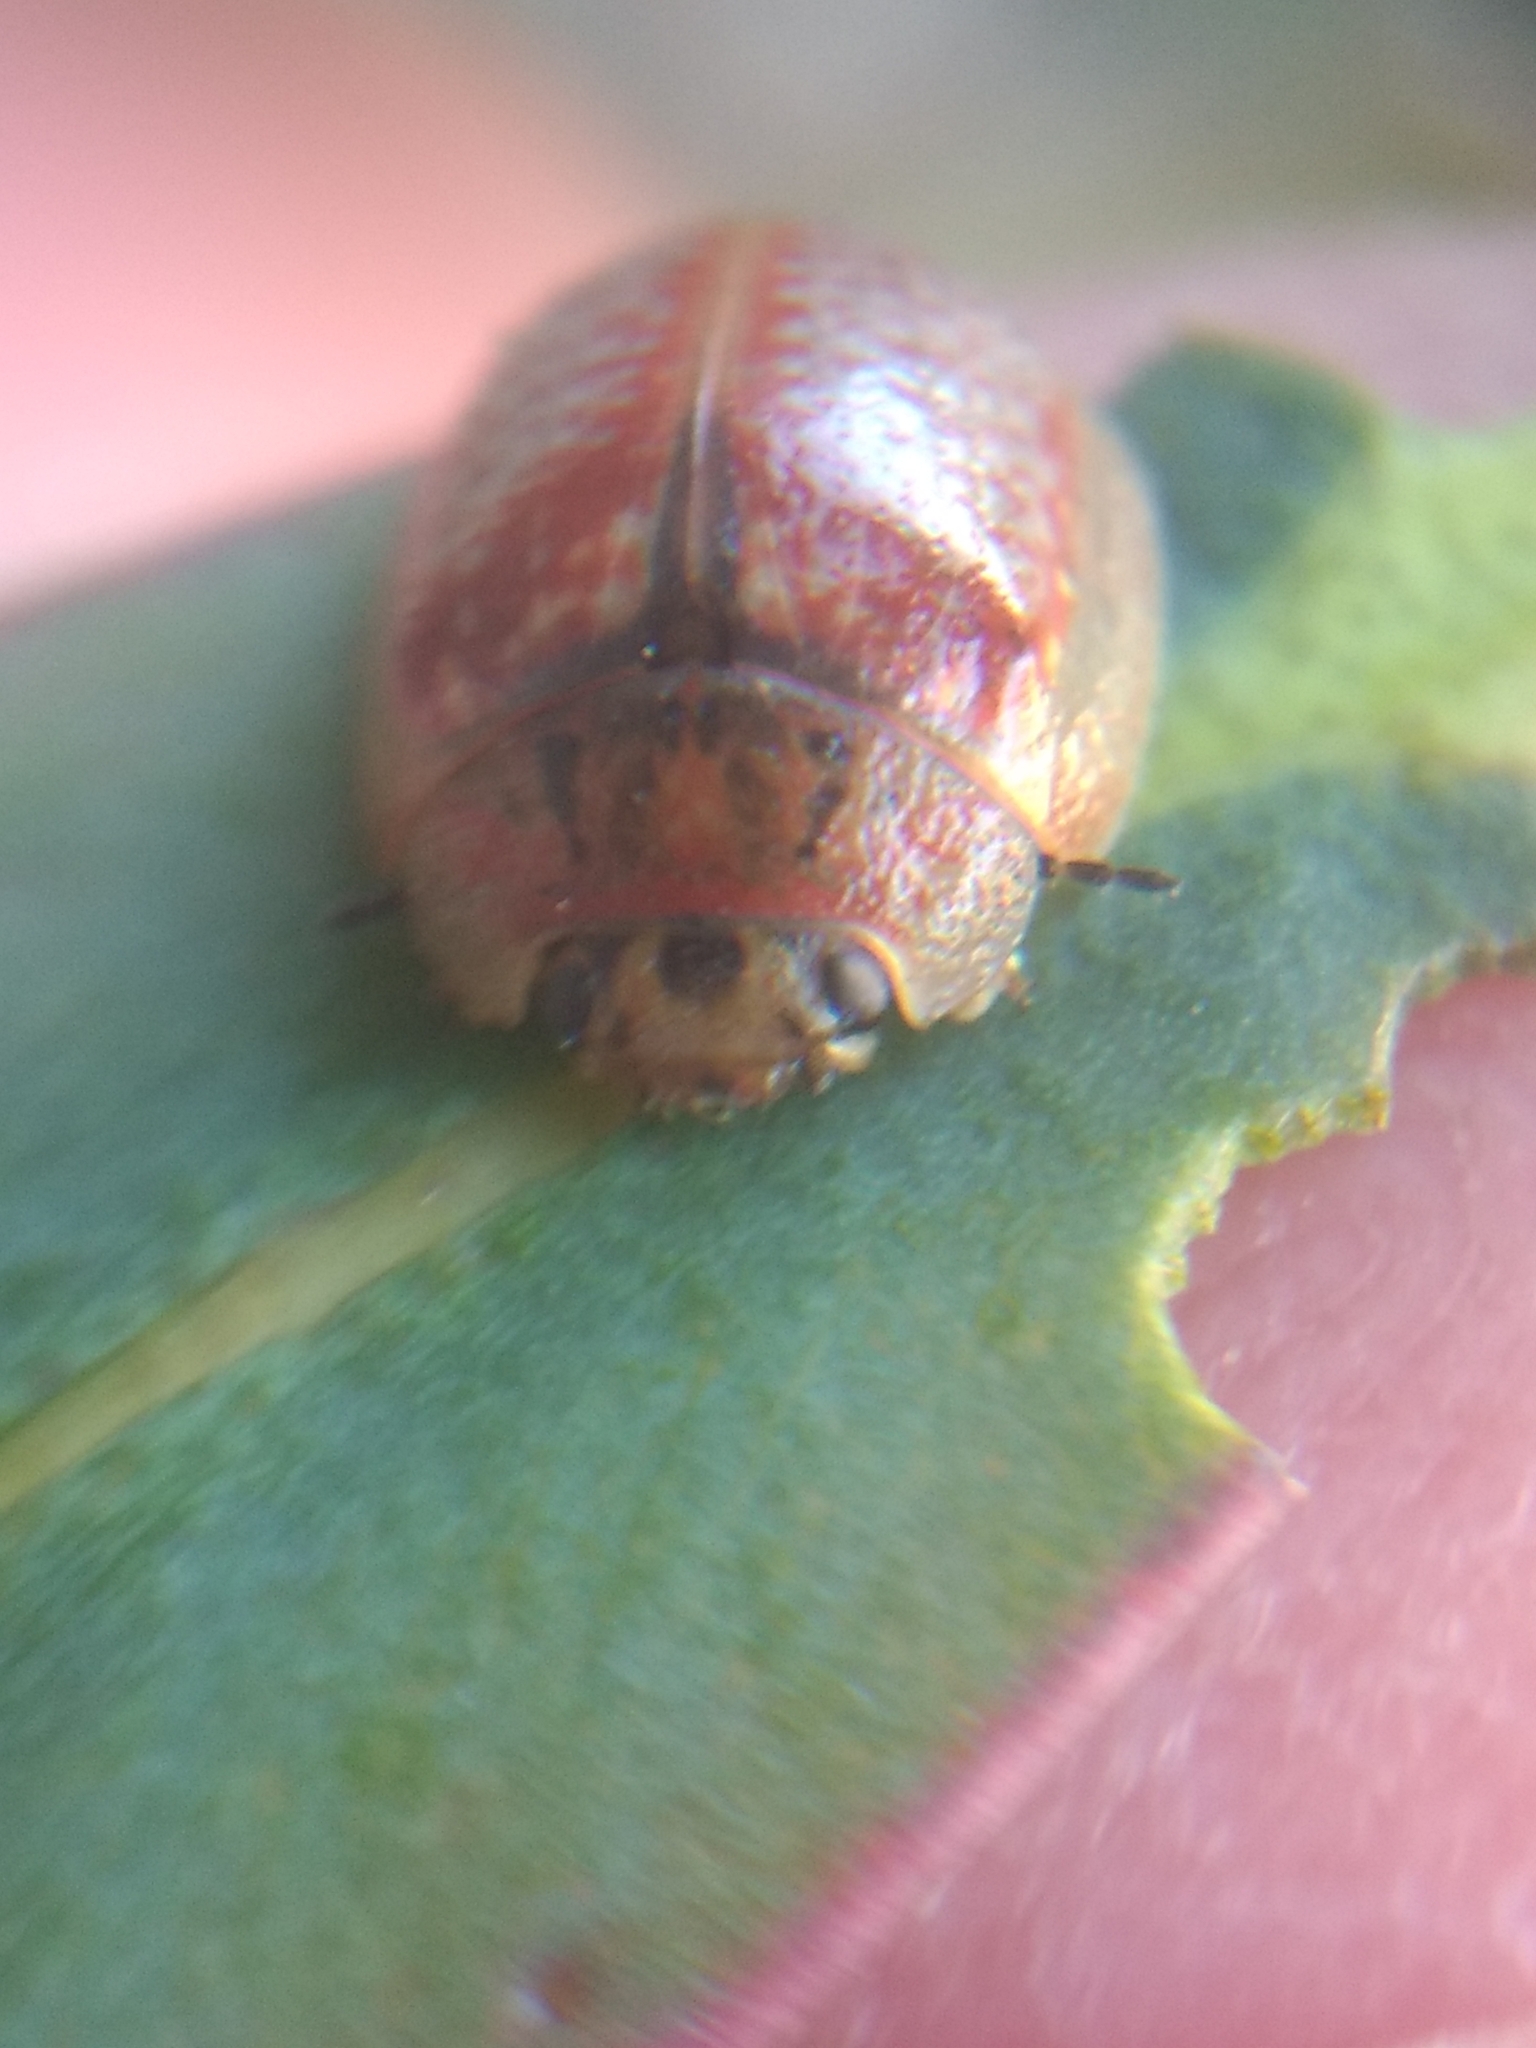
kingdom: Animalia
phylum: Arthropoda
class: Insecta
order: Coleoptera
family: Chrysomelidae
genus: Paropsisterna
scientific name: Paropsisterna m-fuscum
